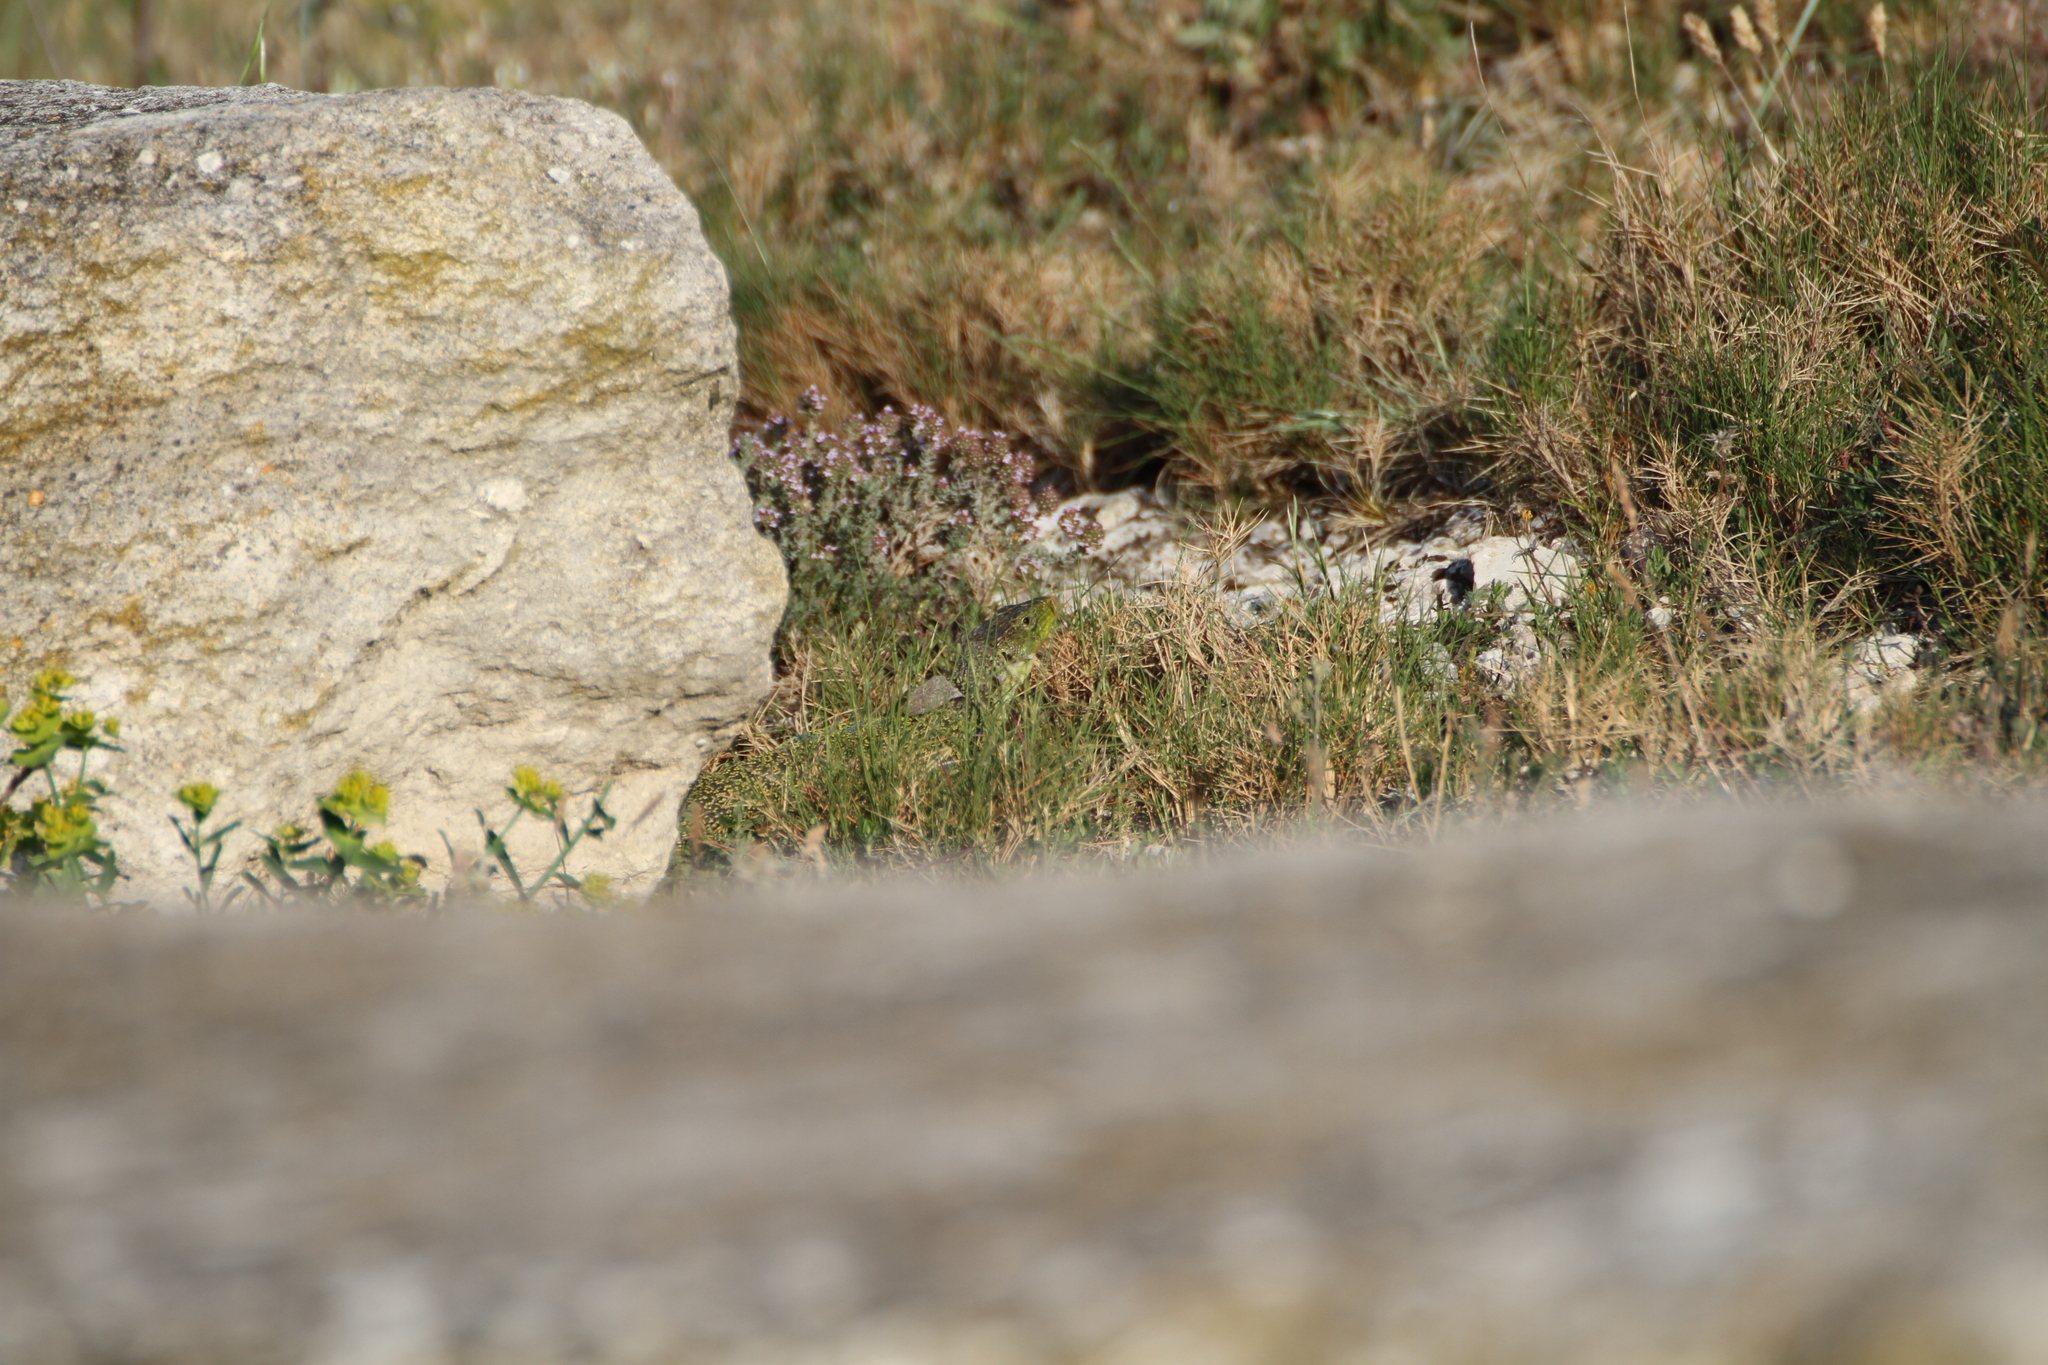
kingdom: Animalia
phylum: Chordata
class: Squamata
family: Lacertidae
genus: Timon
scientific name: Timon lepidus
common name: Ocellated lizard
